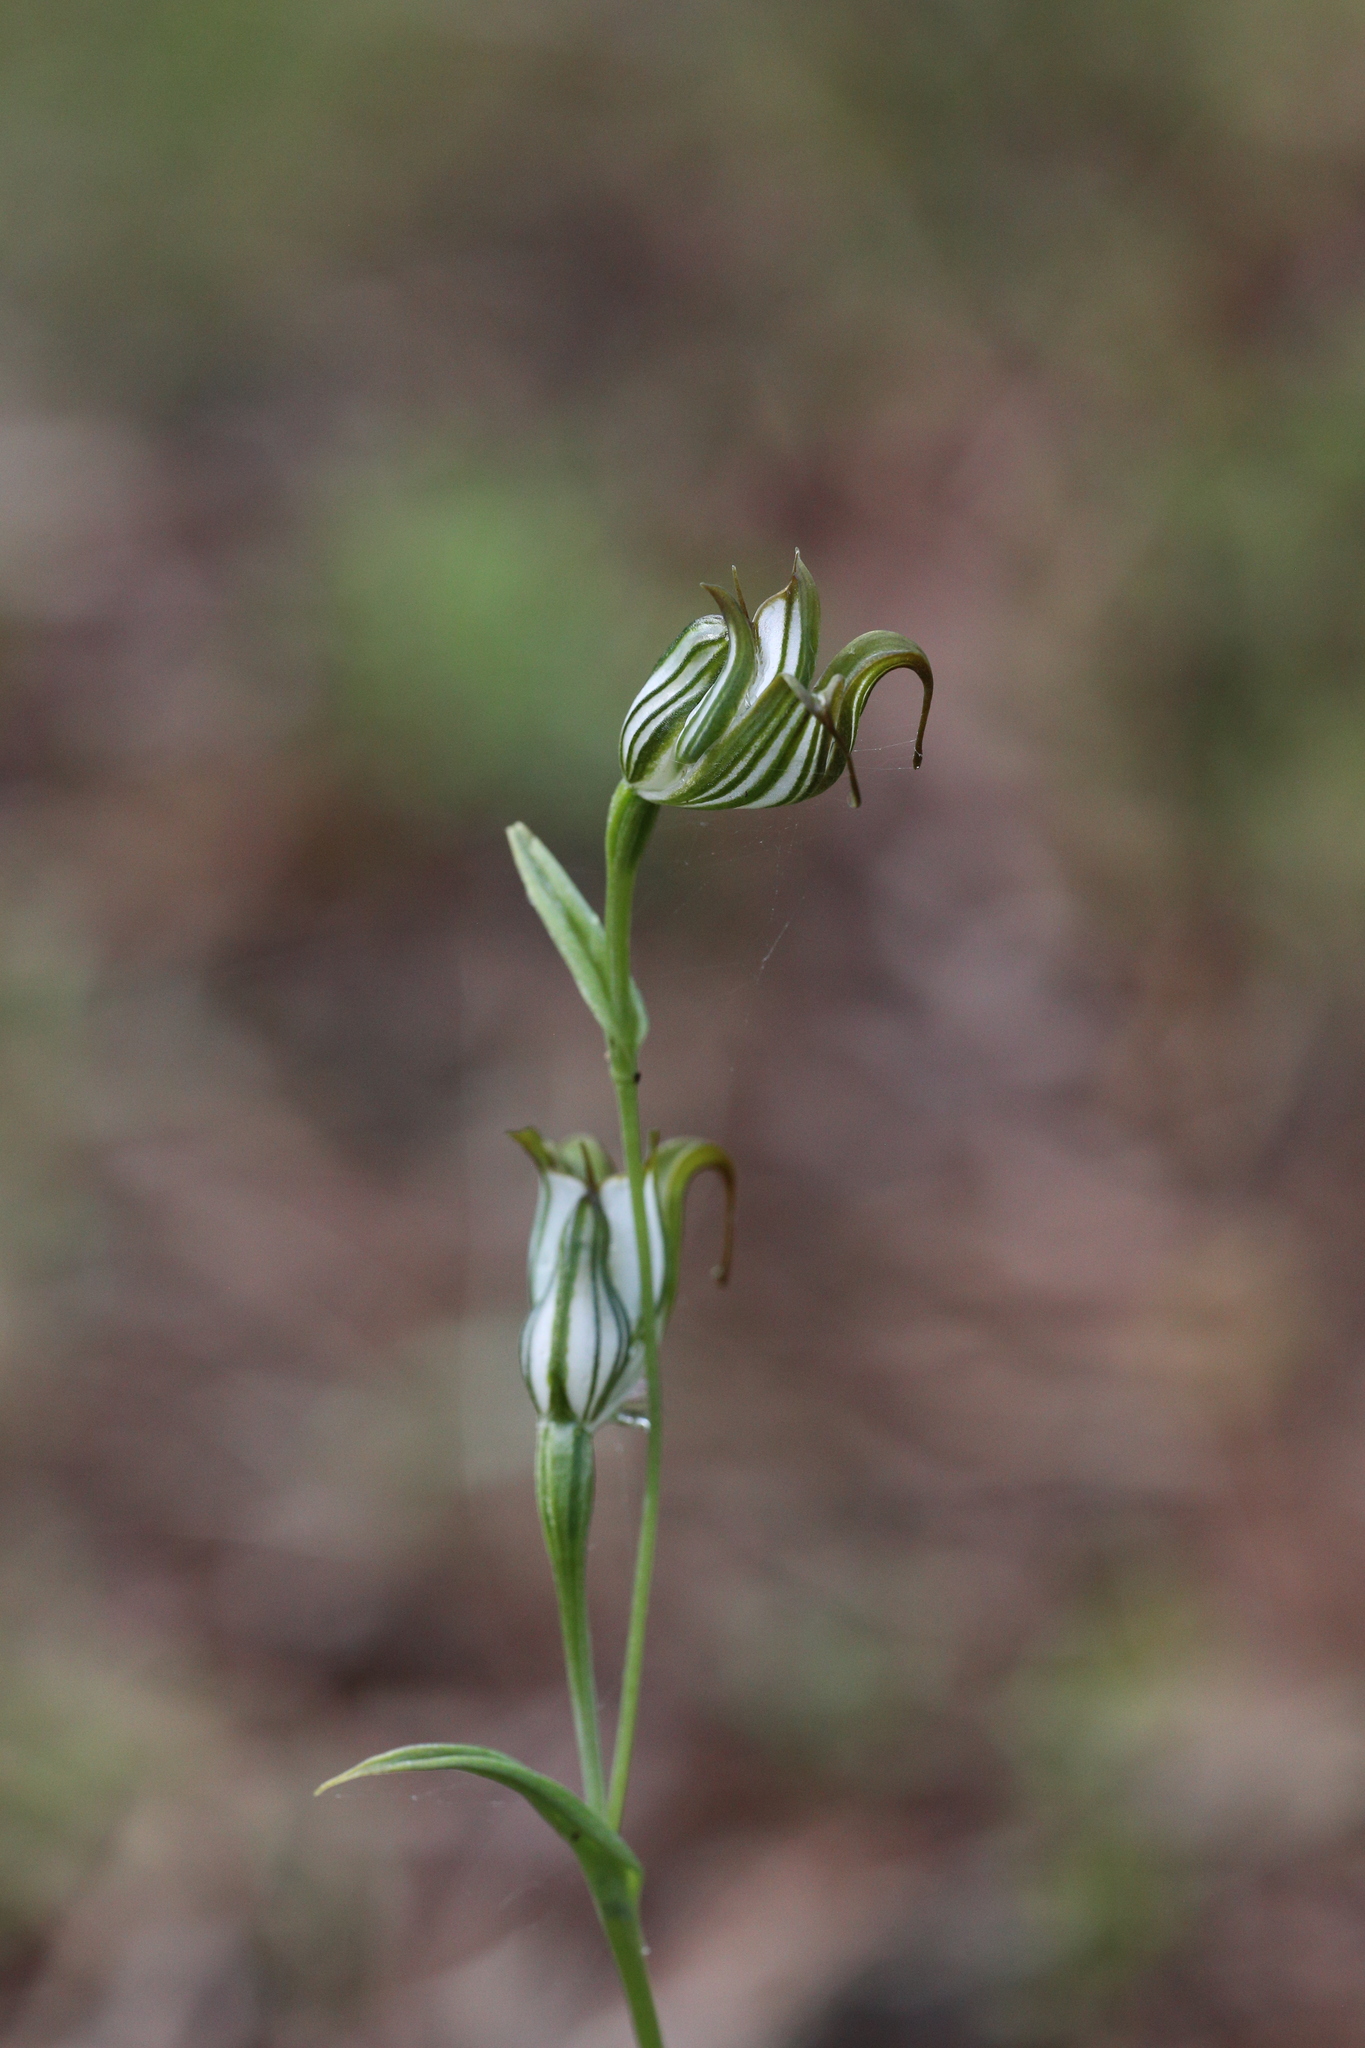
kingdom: Plantae
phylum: Tracheophyta
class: Liliopsida
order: Asparagales
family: Orchidaceae
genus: Pterostylis
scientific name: Pterostylis recurva
